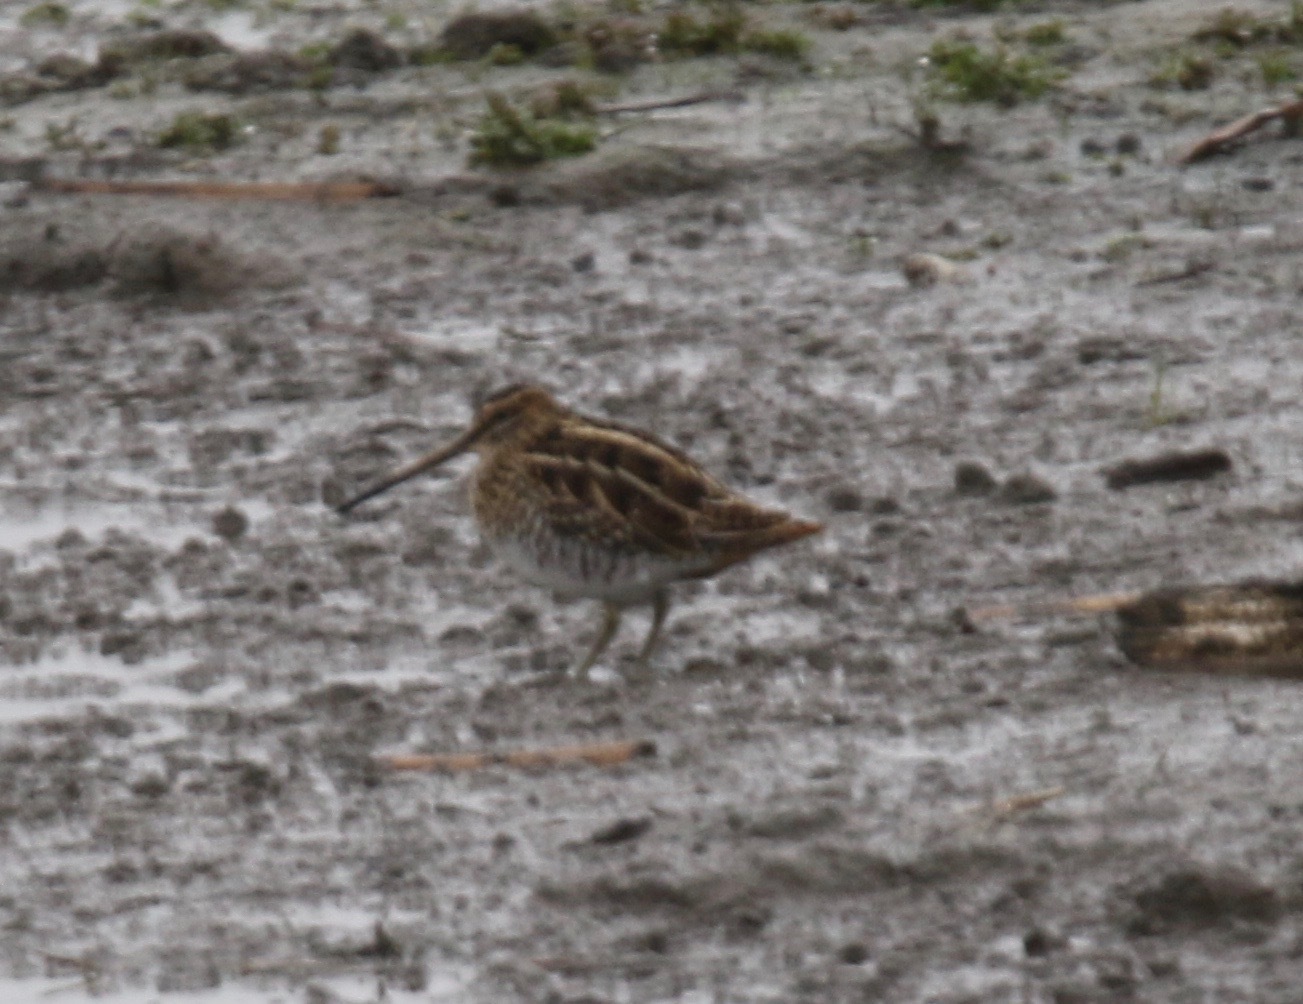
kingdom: Animalia
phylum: Chordata
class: Aves
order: Charadriiformes
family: Scolopacidae
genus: Gallinago
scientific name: Gallinago gallinago
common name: Common snipe
